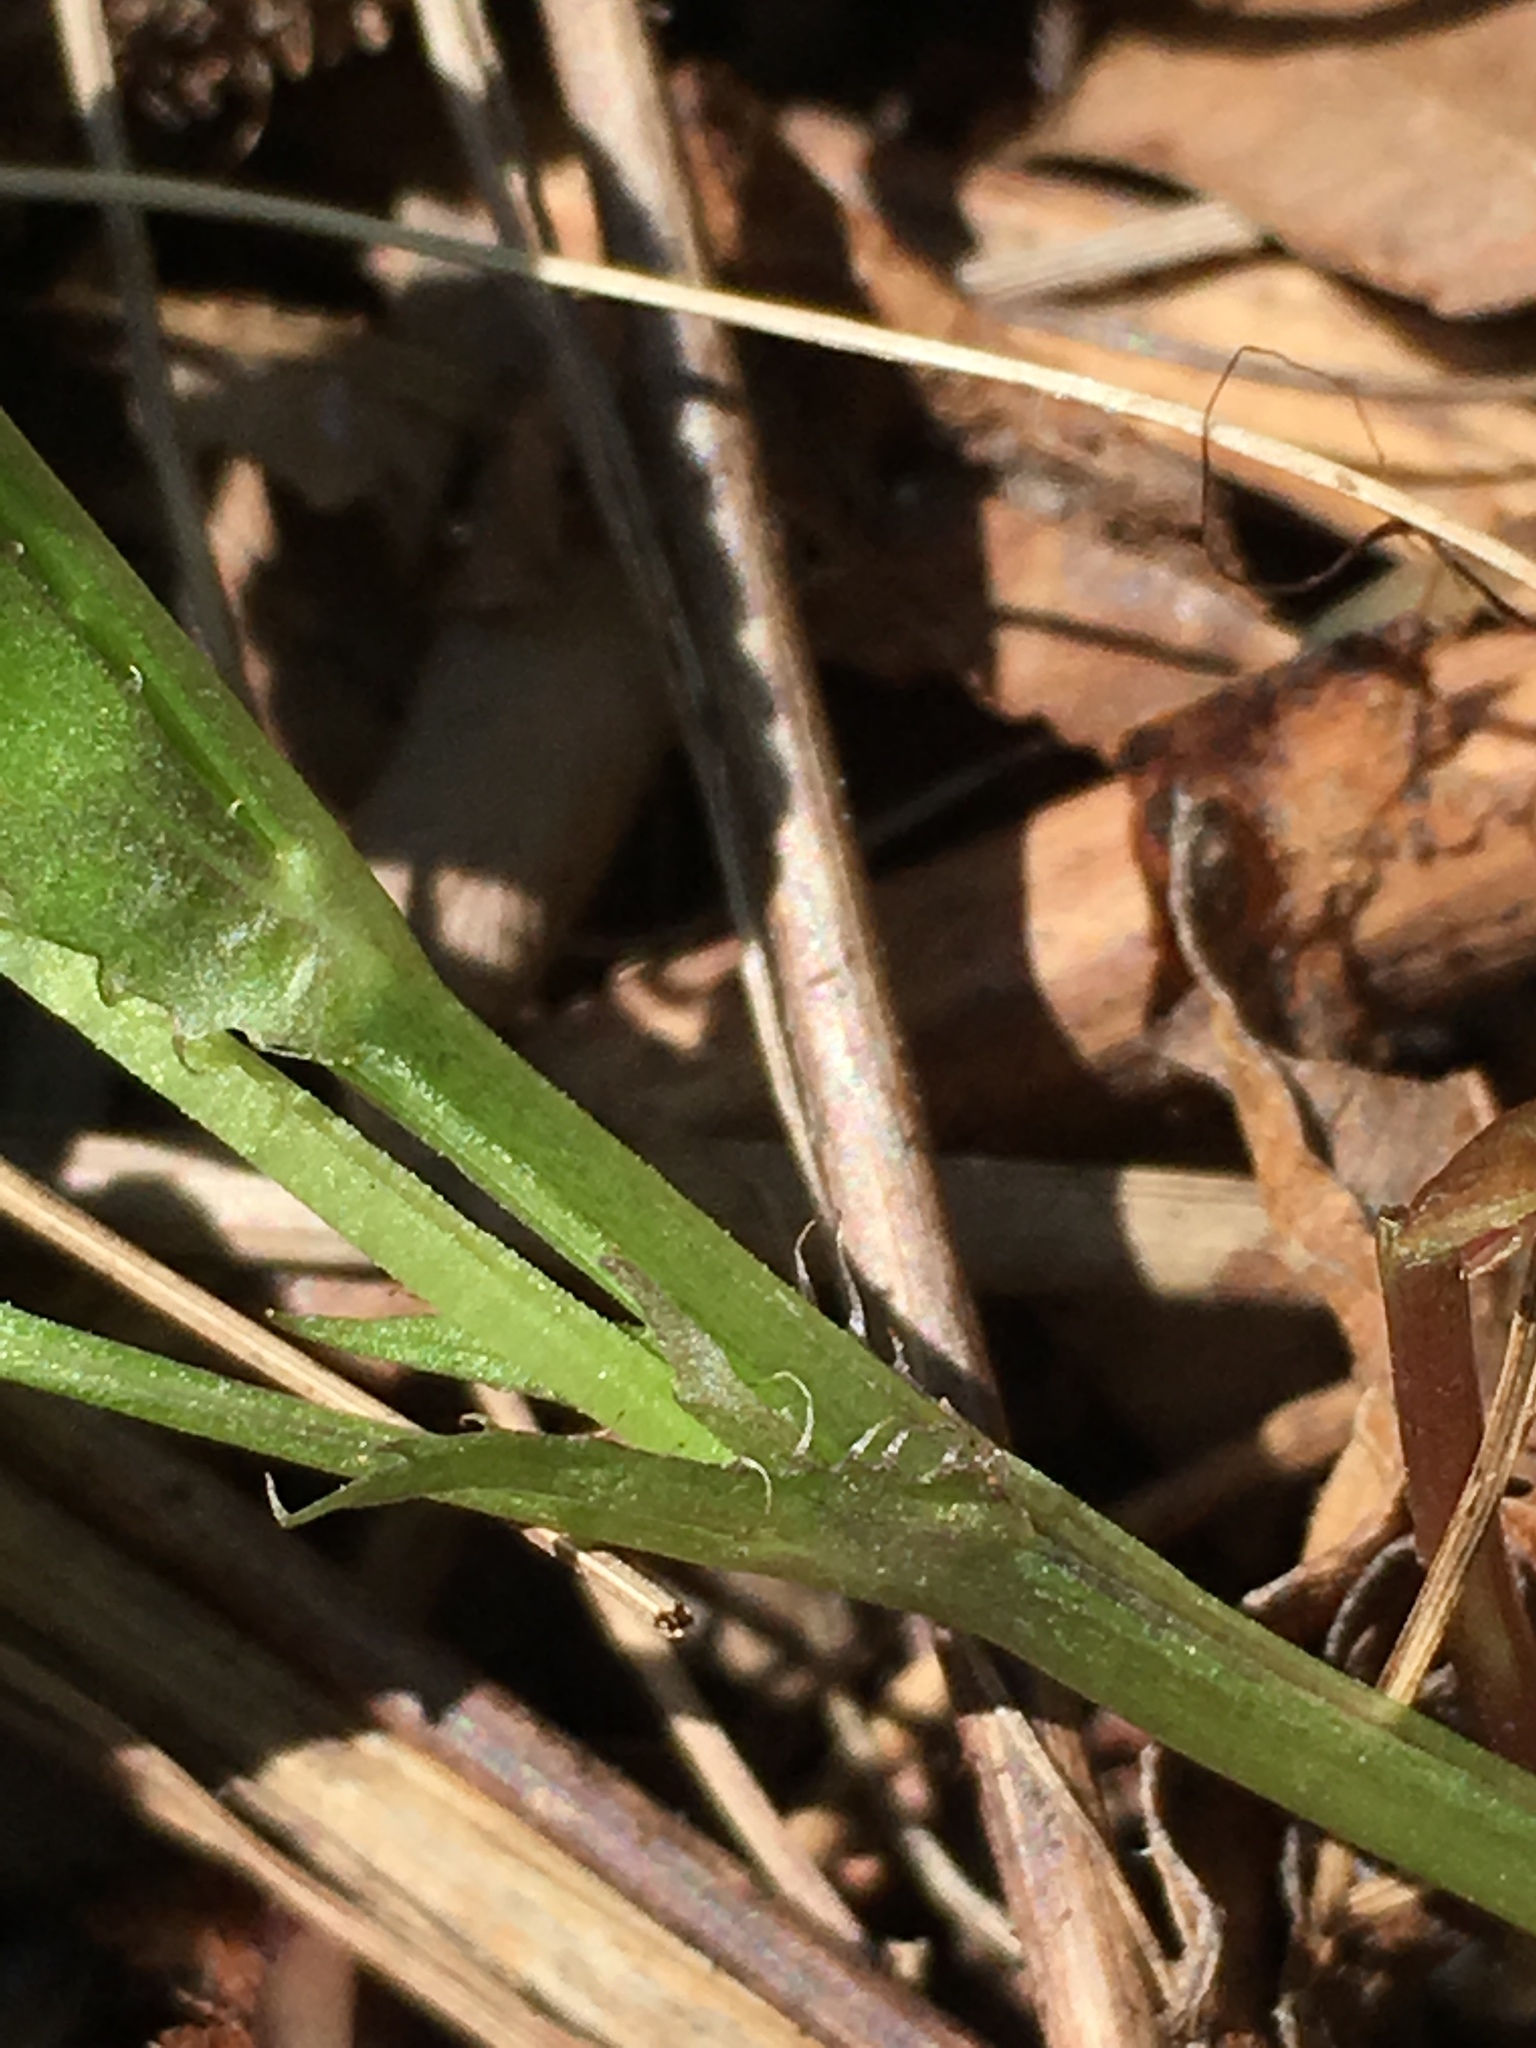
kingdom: Plantae
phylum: Tracheophyta
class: Magnoliopsida
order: Malpighiales
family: Violaceae
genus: Viola
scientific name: Viola labradorica
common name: Labrador violet
